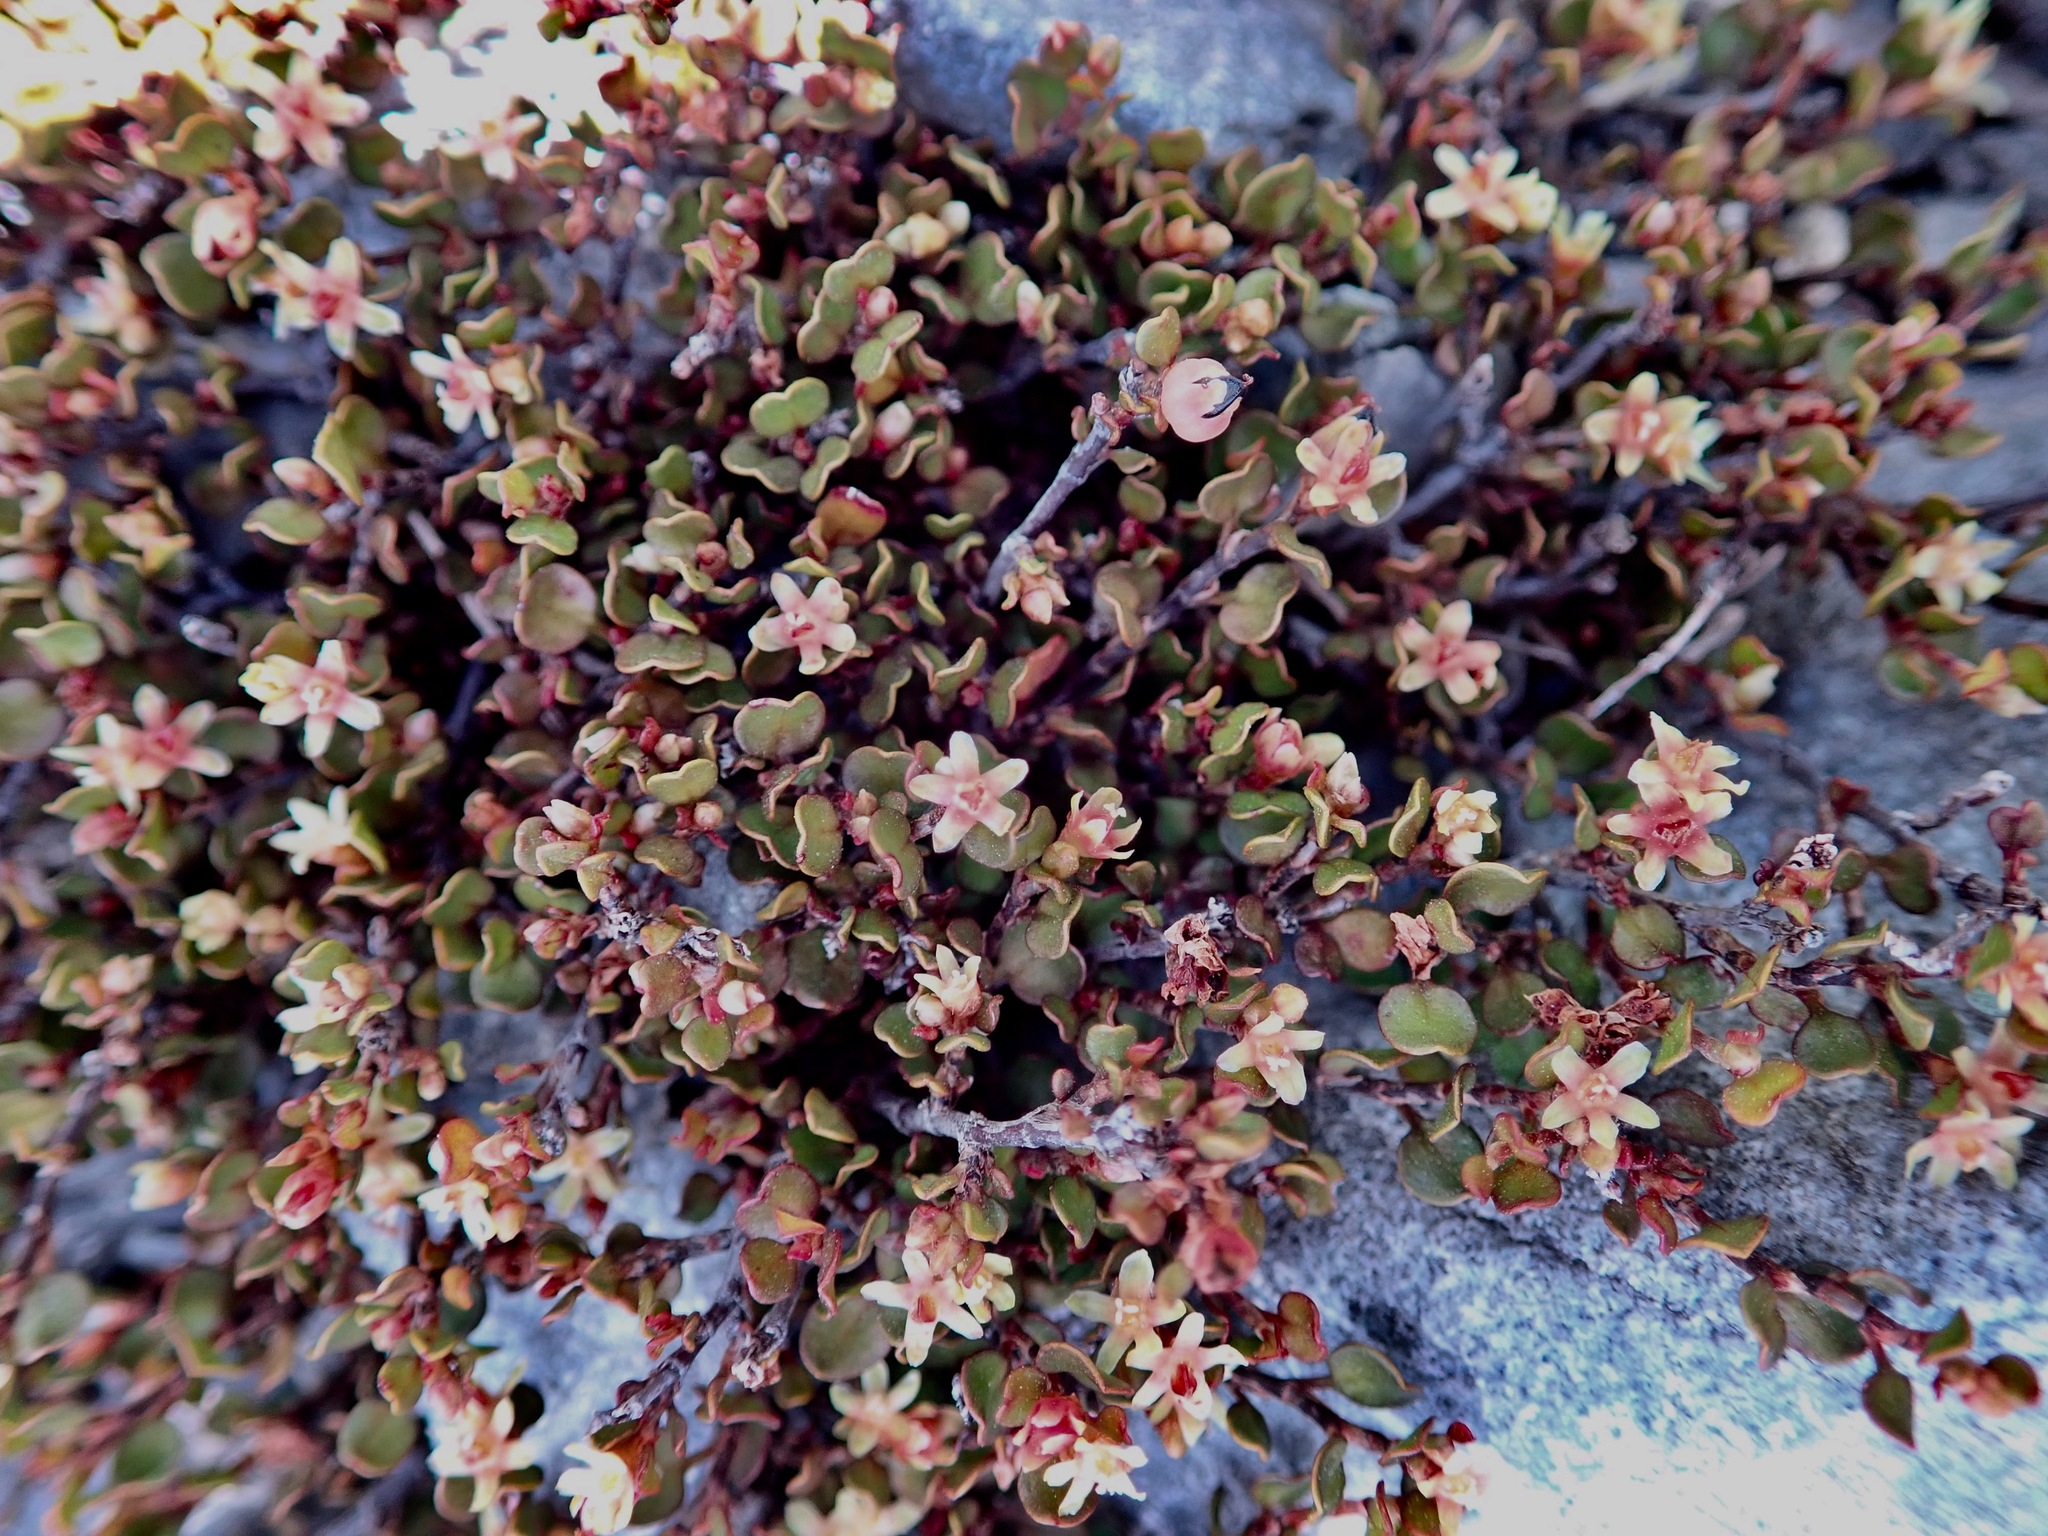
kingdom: Plantae
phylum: Tracheophyta
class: Magnoliopsida
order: Caryophyllales
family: Polygonaceae
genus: Muehlenbeckia
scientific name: Muehlenbeckia axillaris
